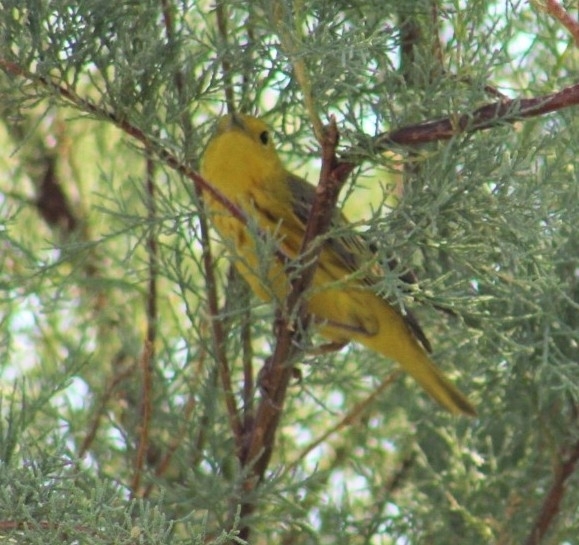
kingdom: Animalia
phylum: Chordata
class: Aves
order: Passeriformes
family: Parulidae
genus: Setophaga
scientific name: Setophaga petechia
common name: Yellow warbler
